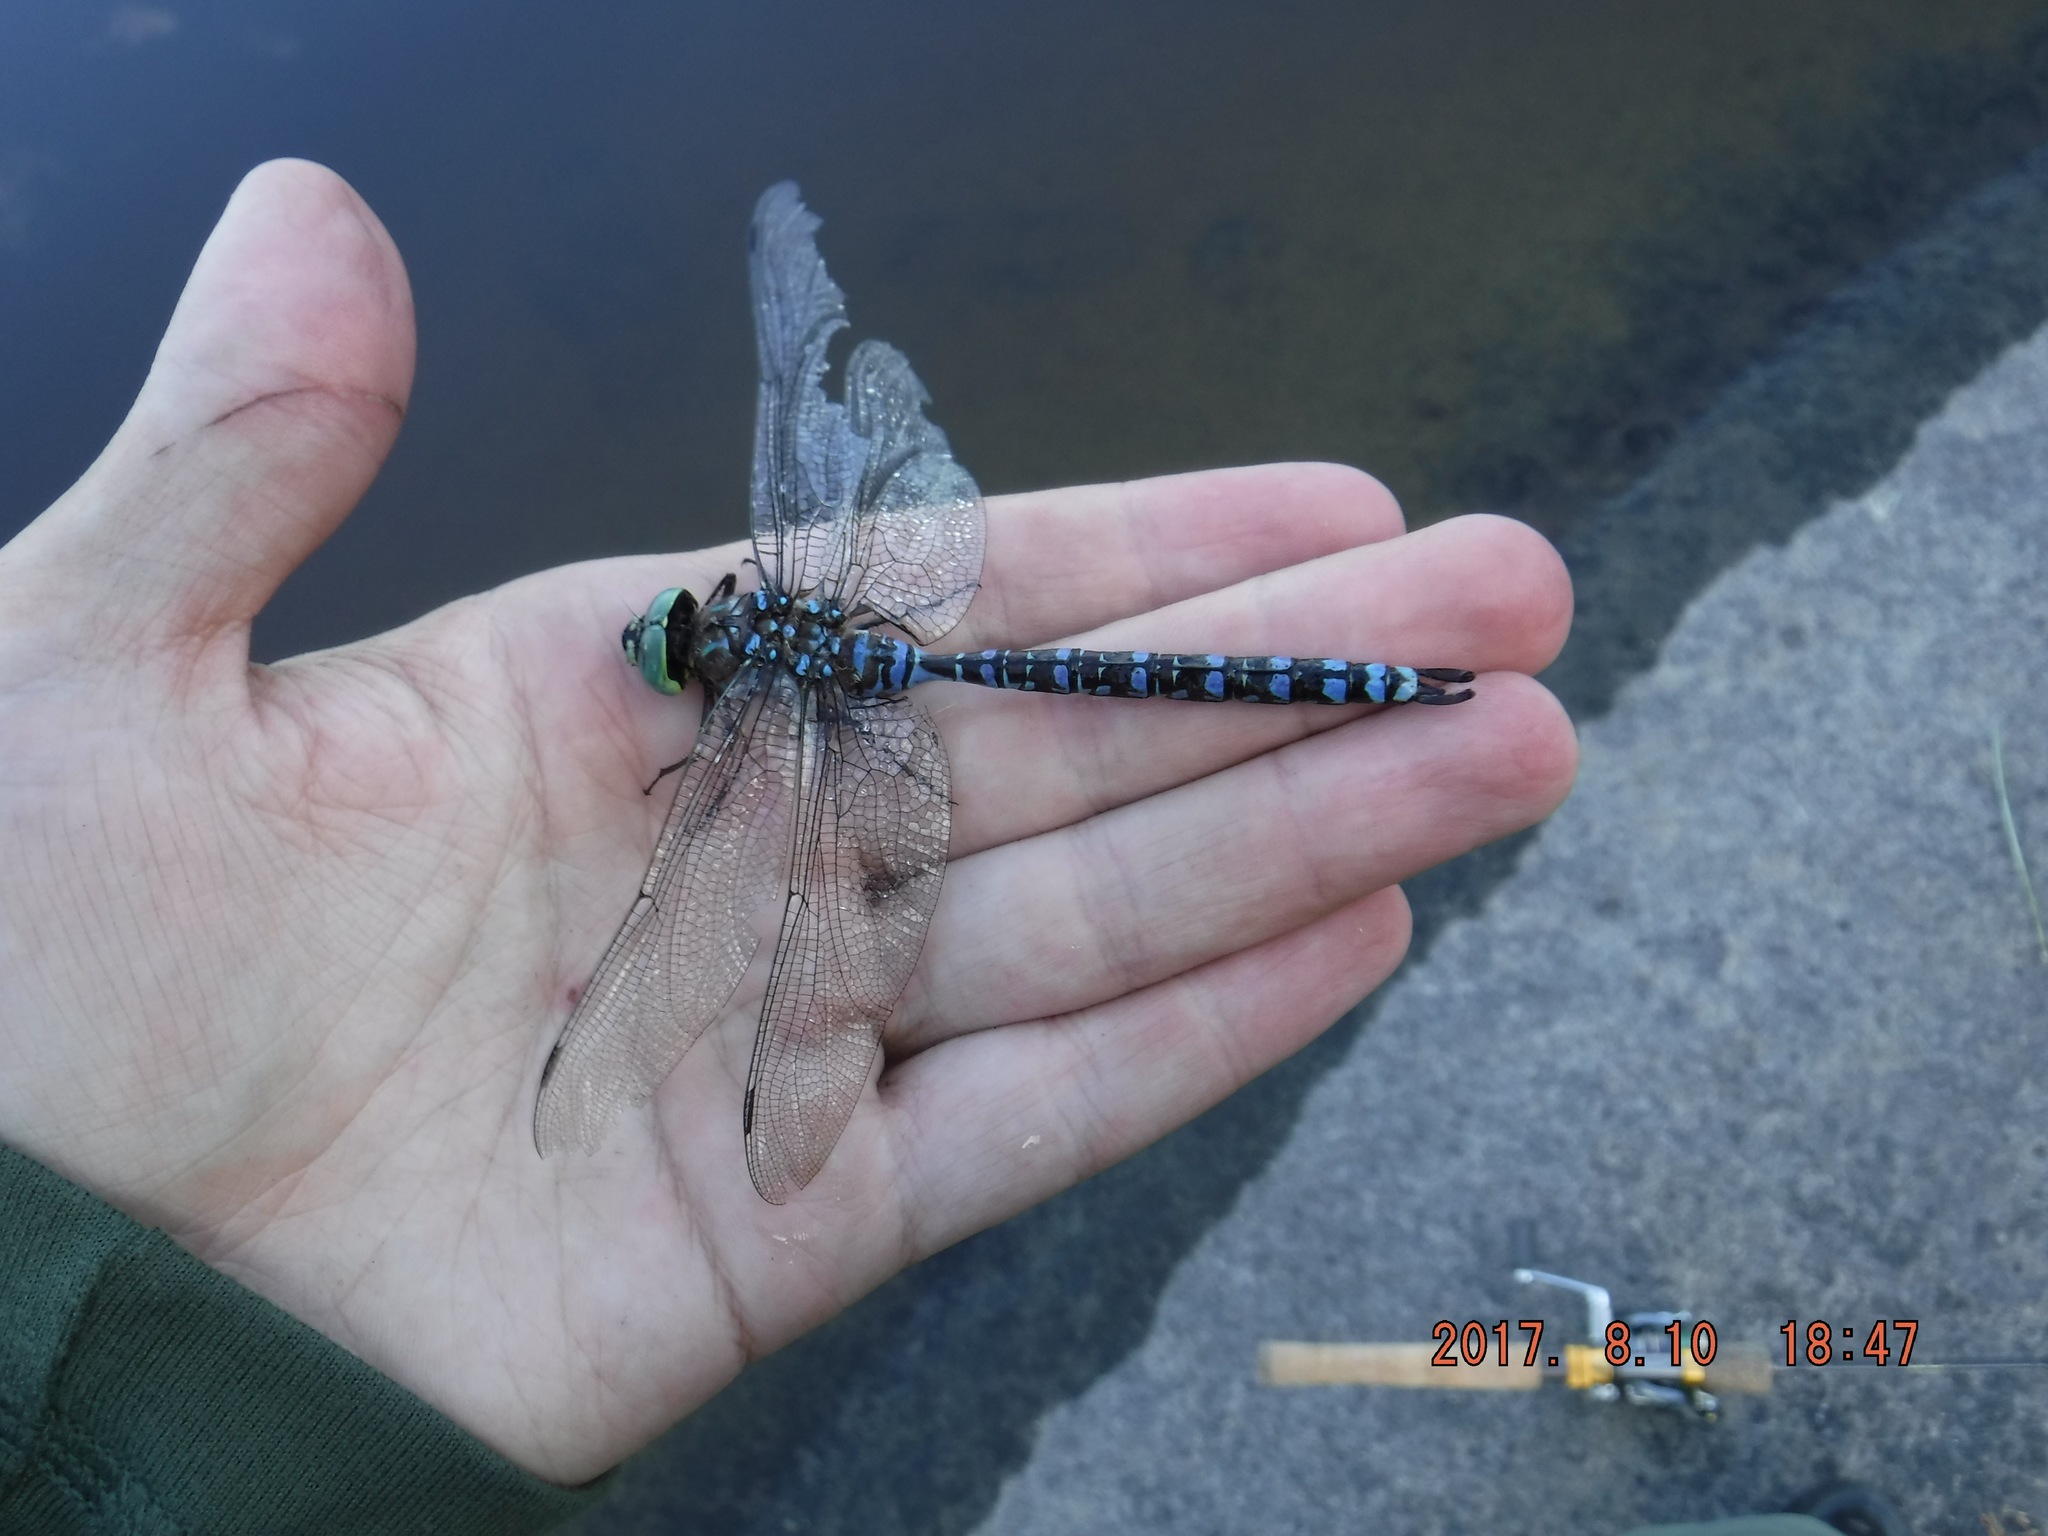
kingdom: Animalia
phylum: Arthropoda
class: Insecta
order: Odonata
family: Aeshnidae
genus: Aeshna
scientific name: Aeshna eremita
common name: Lake darner
